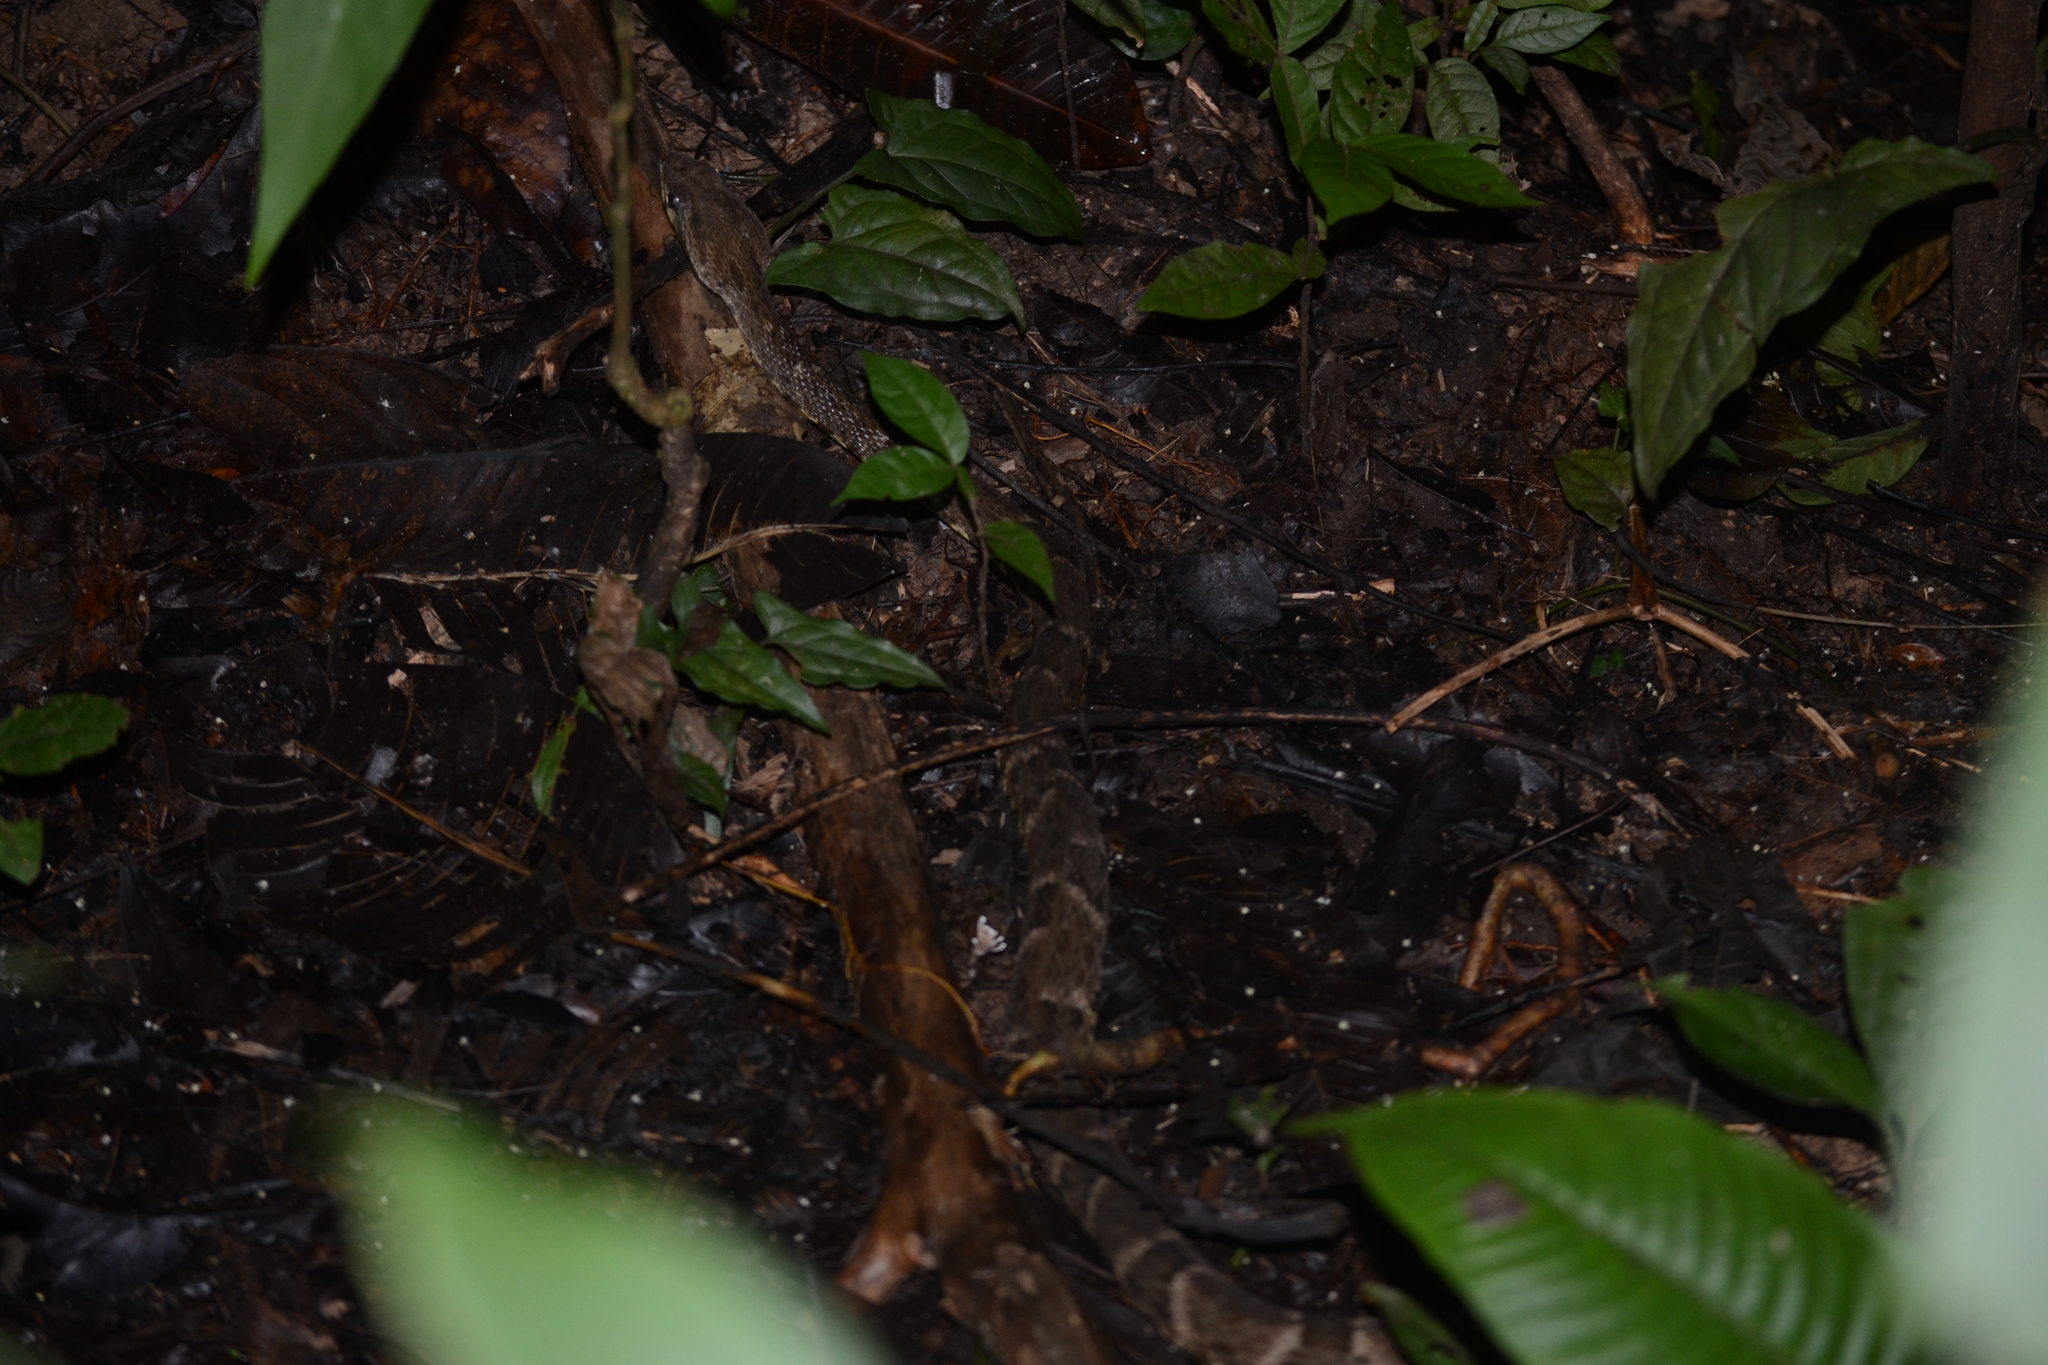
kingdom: Animalia
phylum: Chordata
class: Squamata
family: Viperidae
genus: Bothrops
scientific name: Bothrops atrox
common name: Common lancehead
